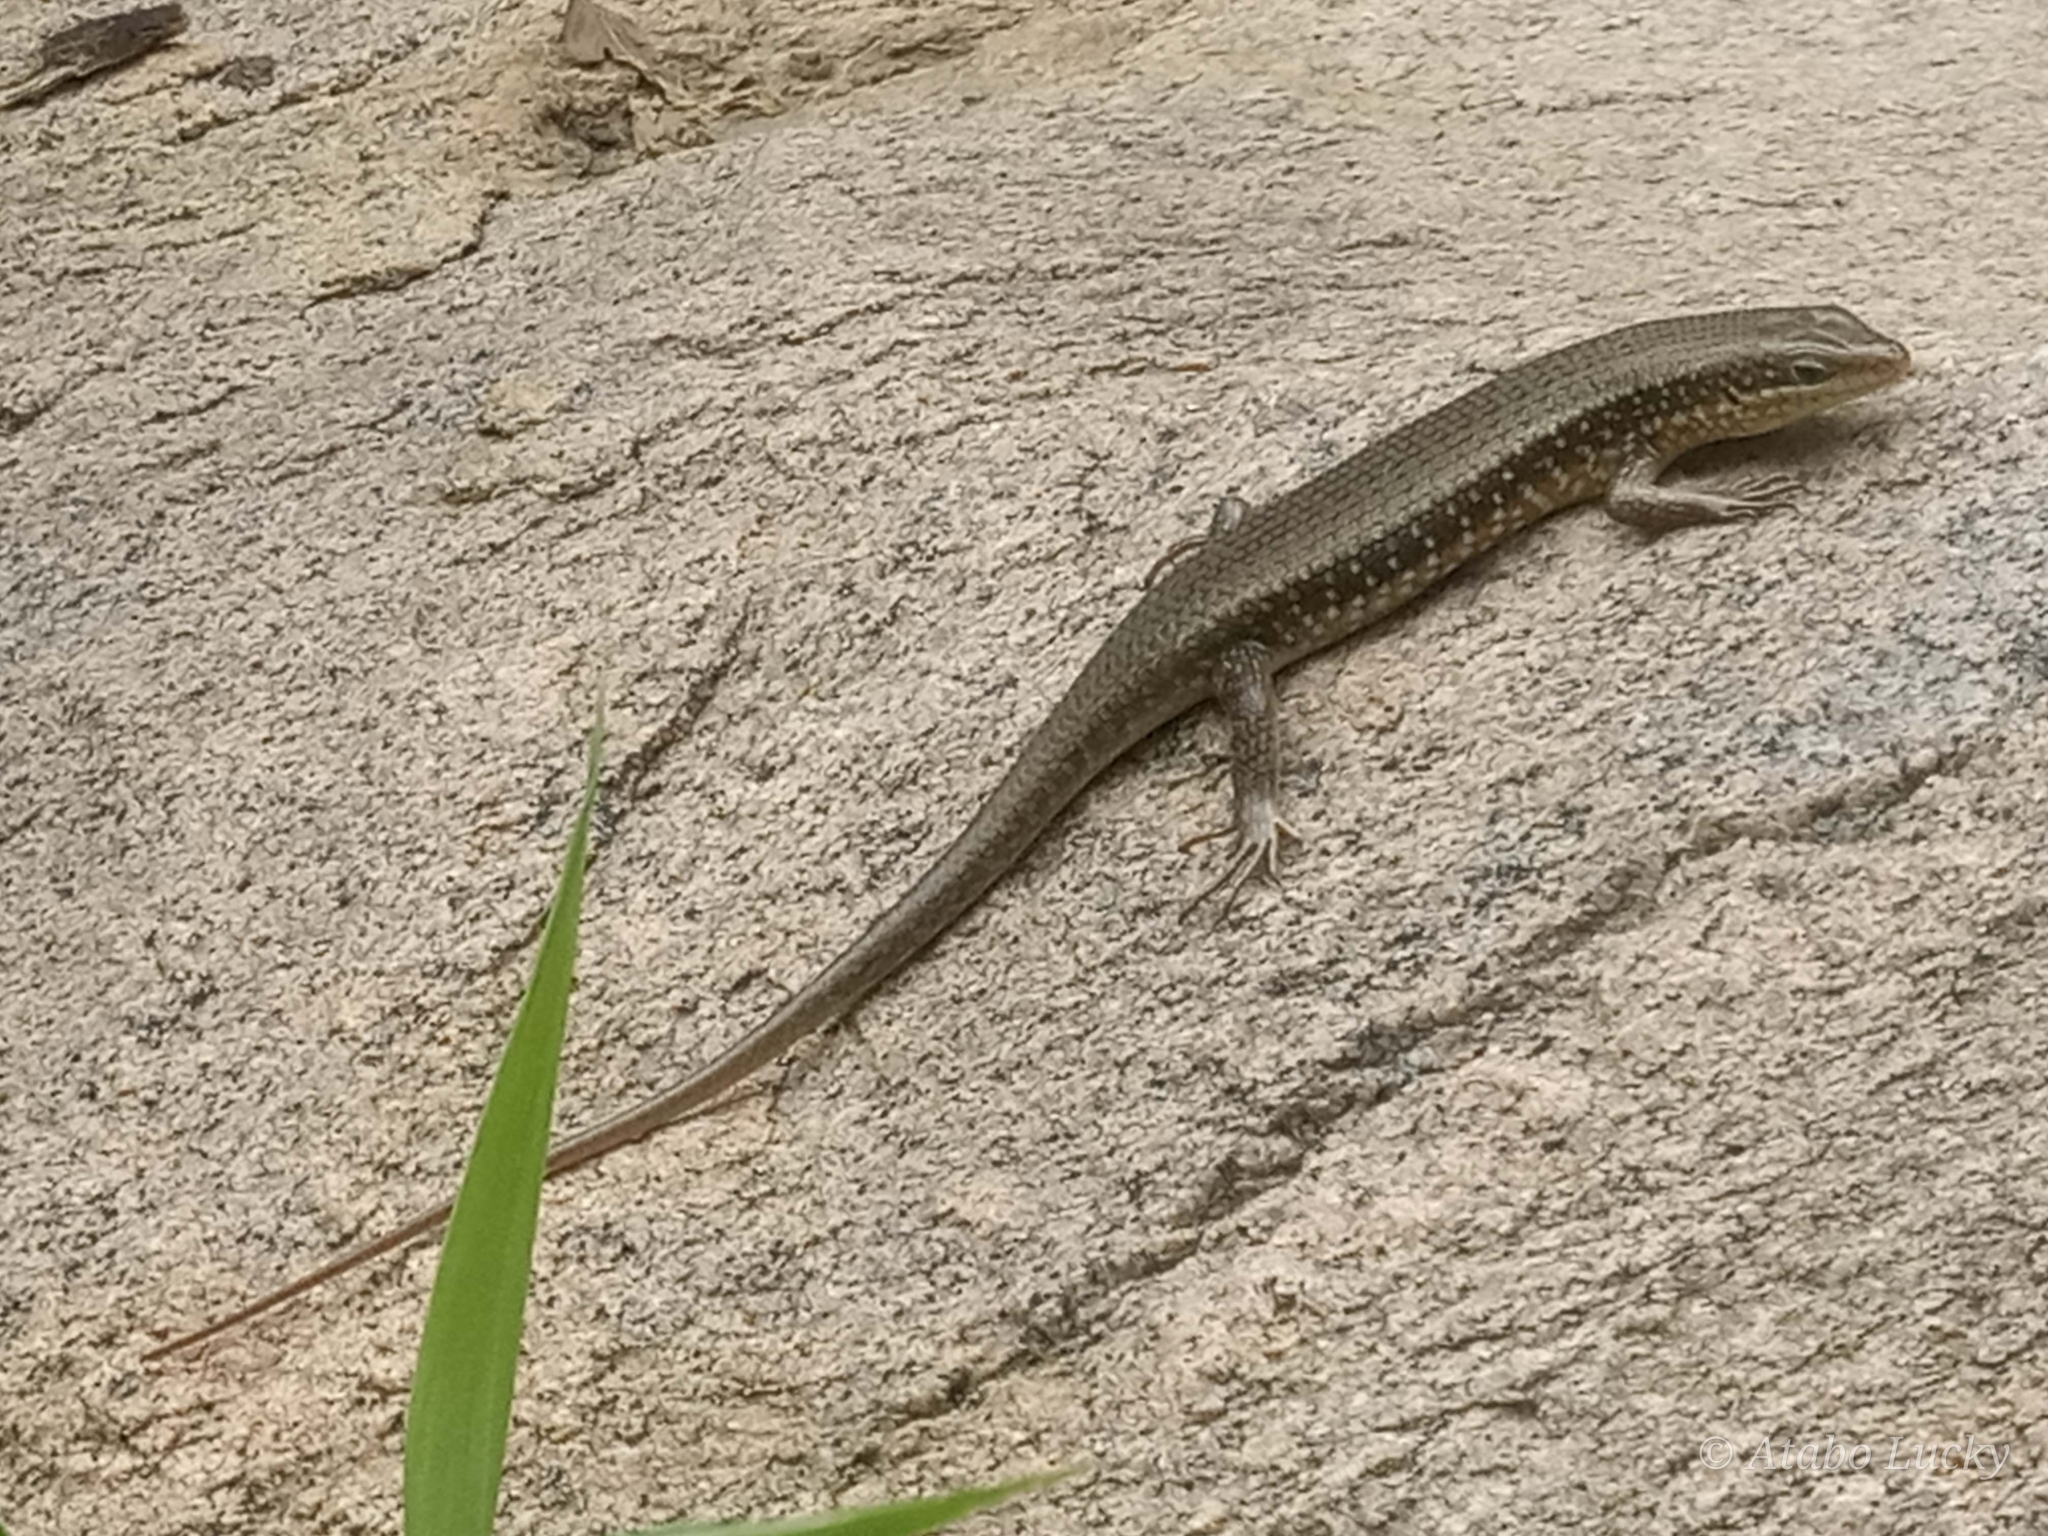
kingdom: Animalia
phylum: Chordata
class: Squamata
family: Scincidae
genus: Trachylepis
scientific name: Trachylepis perrotetii
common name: Teita mabuya
